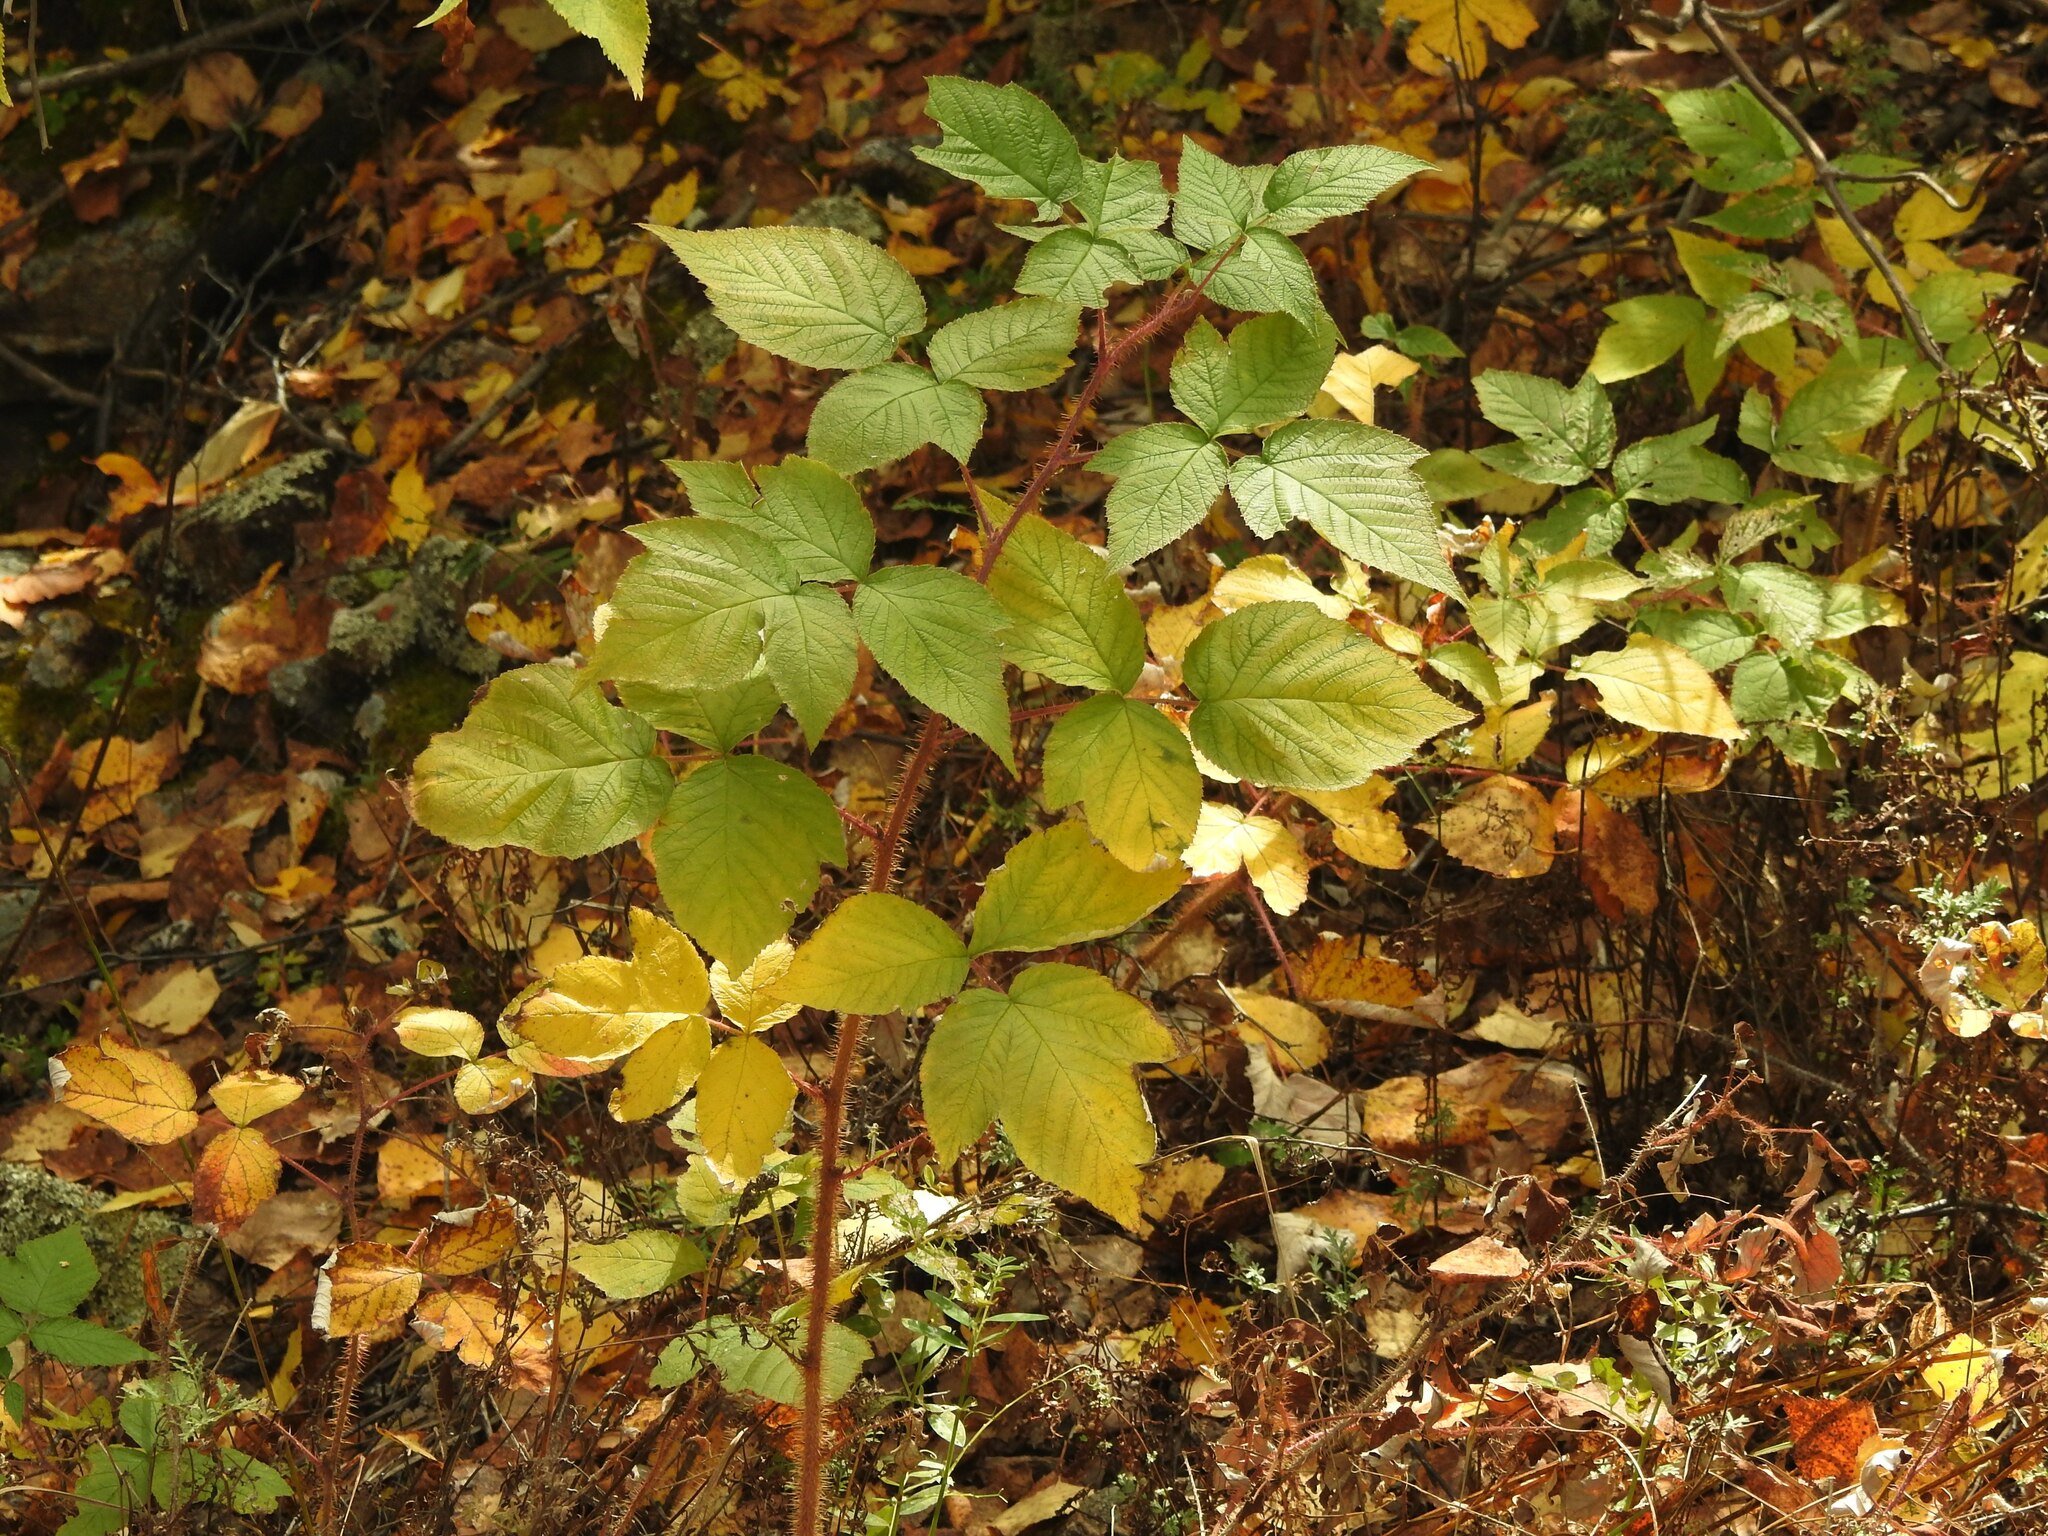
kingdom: Plantae
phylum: Tracheophyta
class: Magnoliopsida
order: Rosales
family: Rosaceae
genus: Rubus
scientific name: Rubus sachalinensis
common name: Red raspberry
